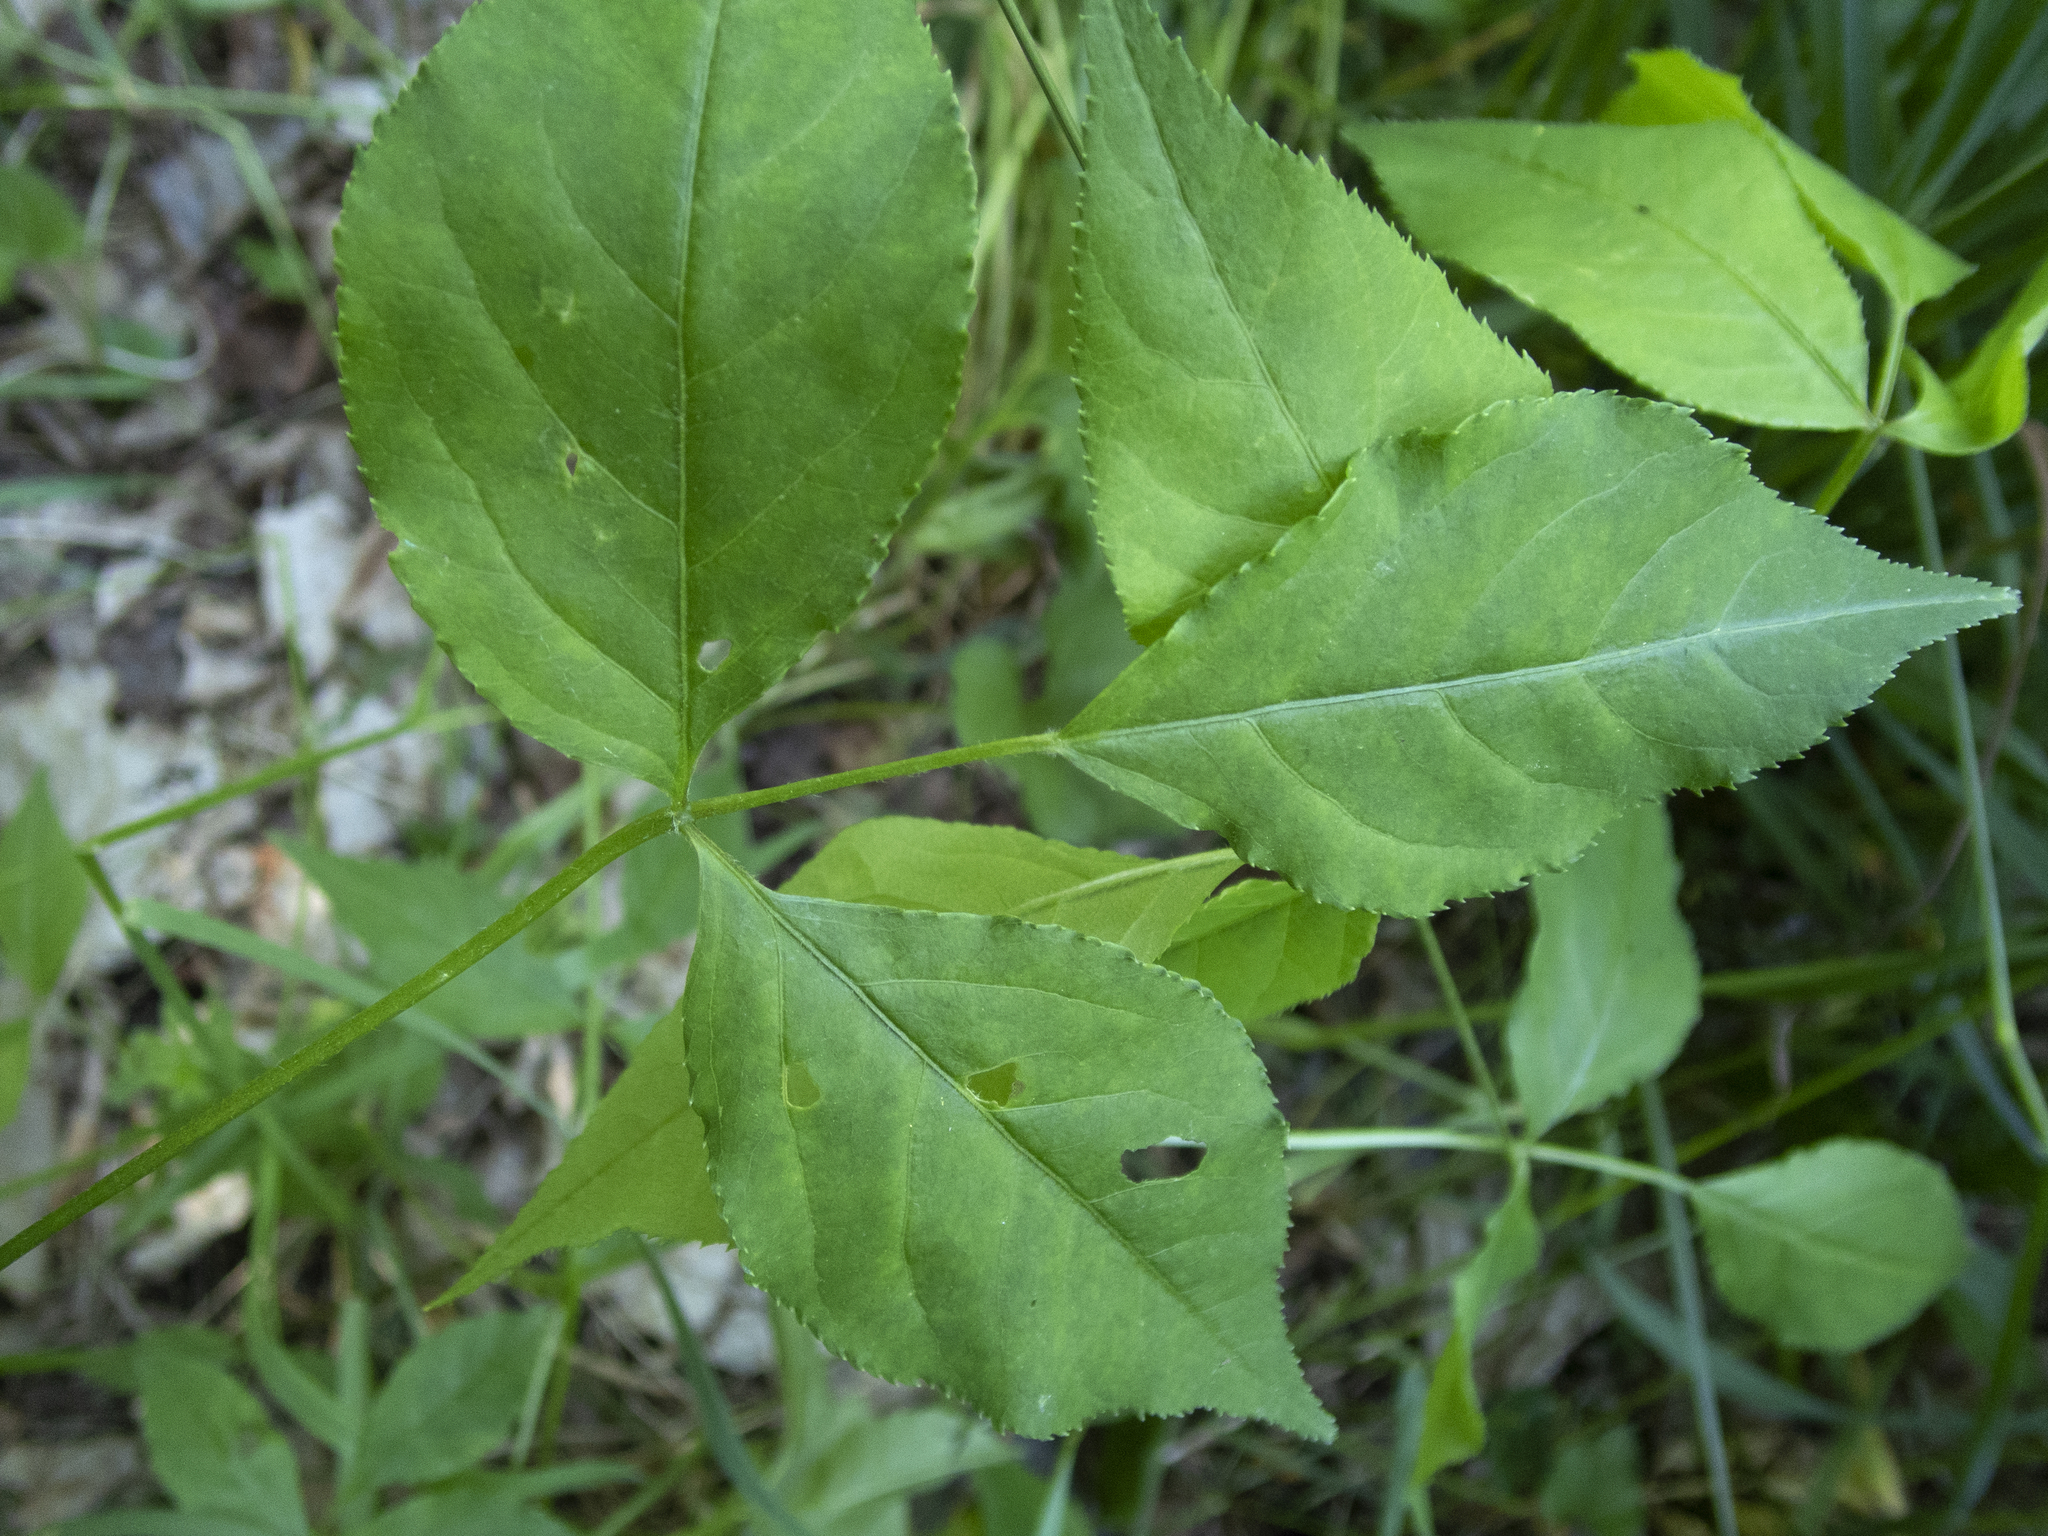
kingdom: Plantae
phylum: Tracheophyta
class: Magnoliopsida
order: Crossosomatales
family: Staphyleaceae
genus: Staphylea
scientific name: Staphylea trifolia
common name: American bladdernut
